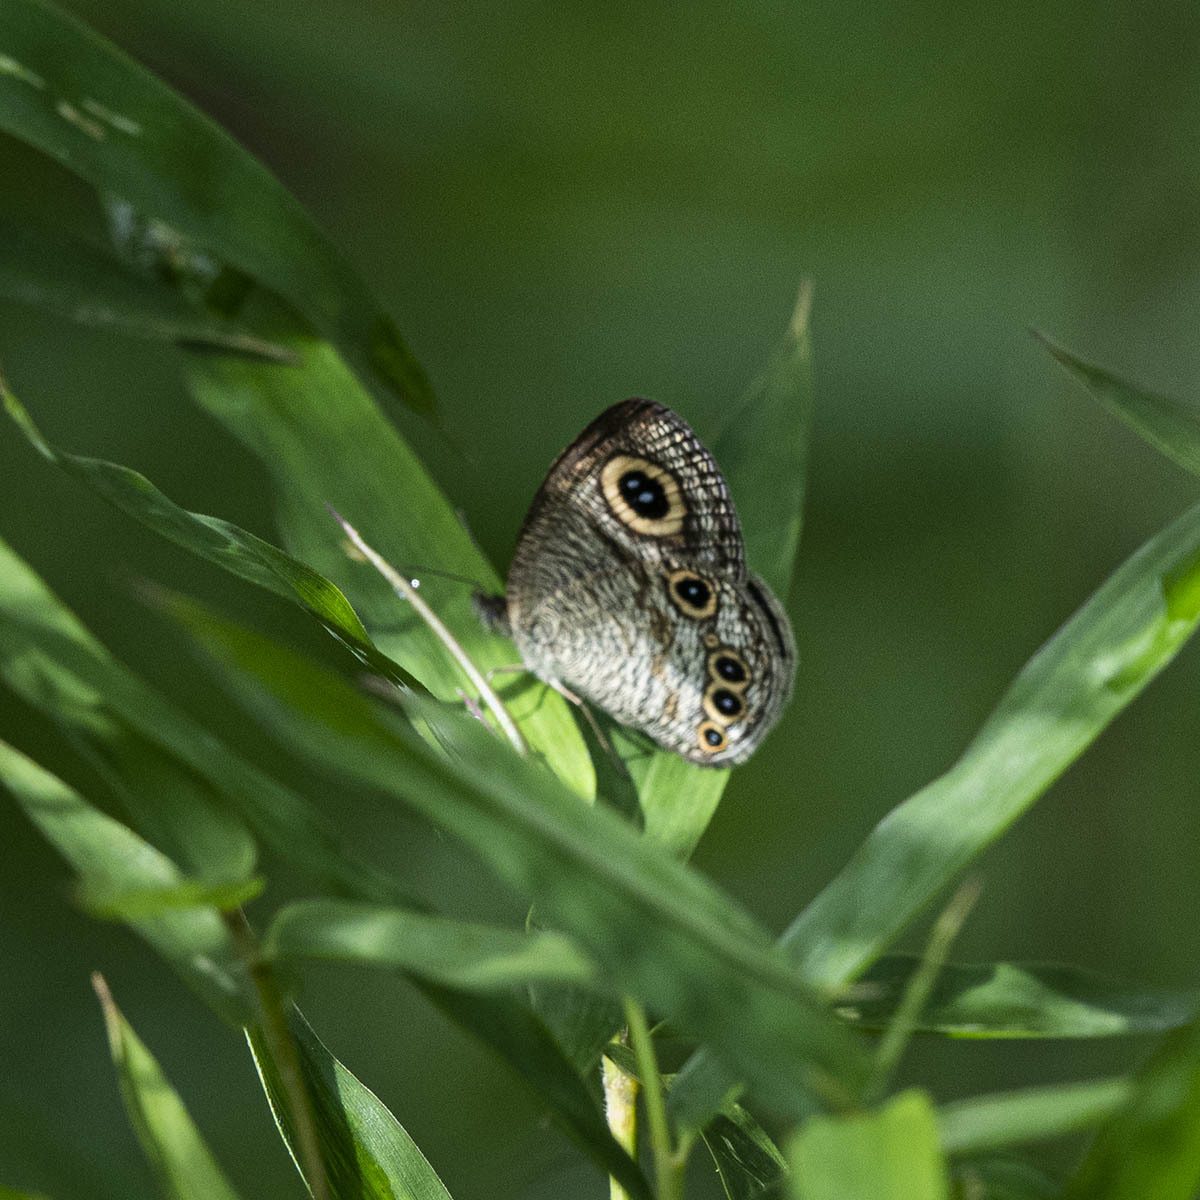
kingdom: Animalia
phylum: Arthropoda
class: Insecta
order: Lepidoptera
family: Nymphalidae
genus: Ypthima
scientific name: Ypthima huebneri
